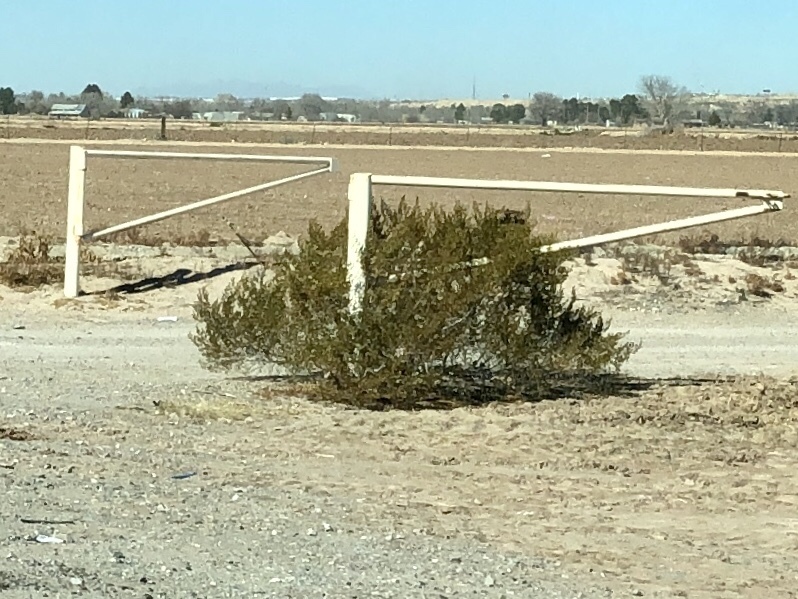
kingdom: Plantae
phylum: Tracheophyta
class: Magnoliopsida
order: Zygophyllales
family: Zygophyllaceae
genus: Larrea
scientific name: Larrea tridentata
